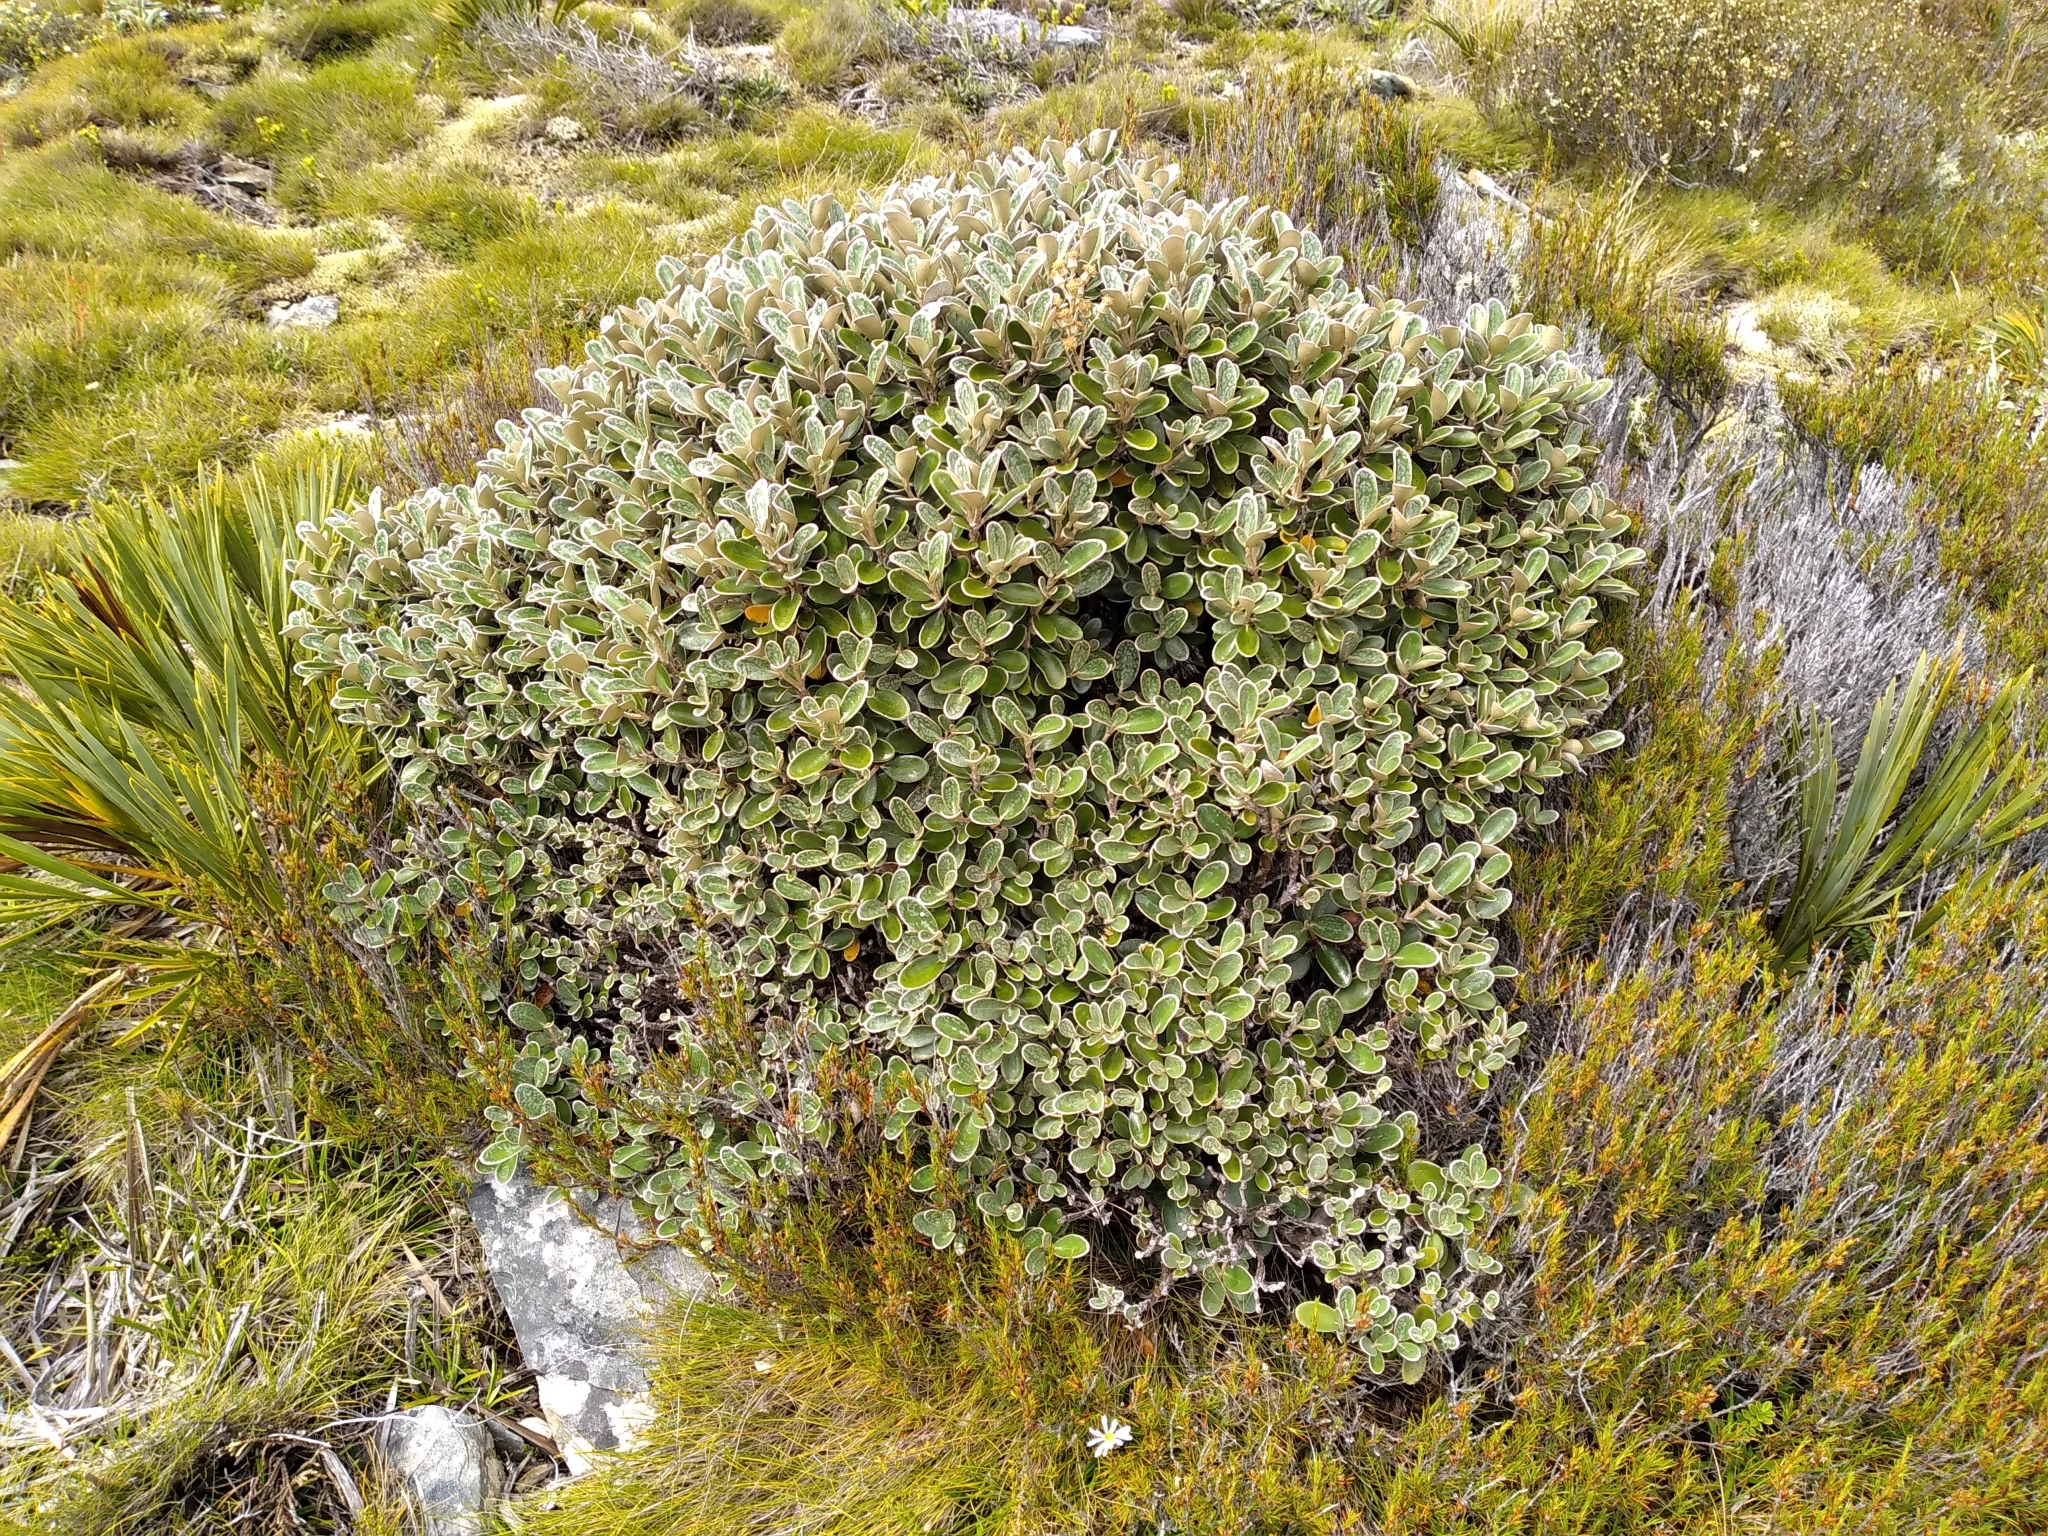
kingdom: Plantae
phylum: Tracheophyta
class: Magnoliopsida
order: Asterales
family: Asteraceae
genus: Brachyglottis
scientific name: Brachyglottis bidwillii
